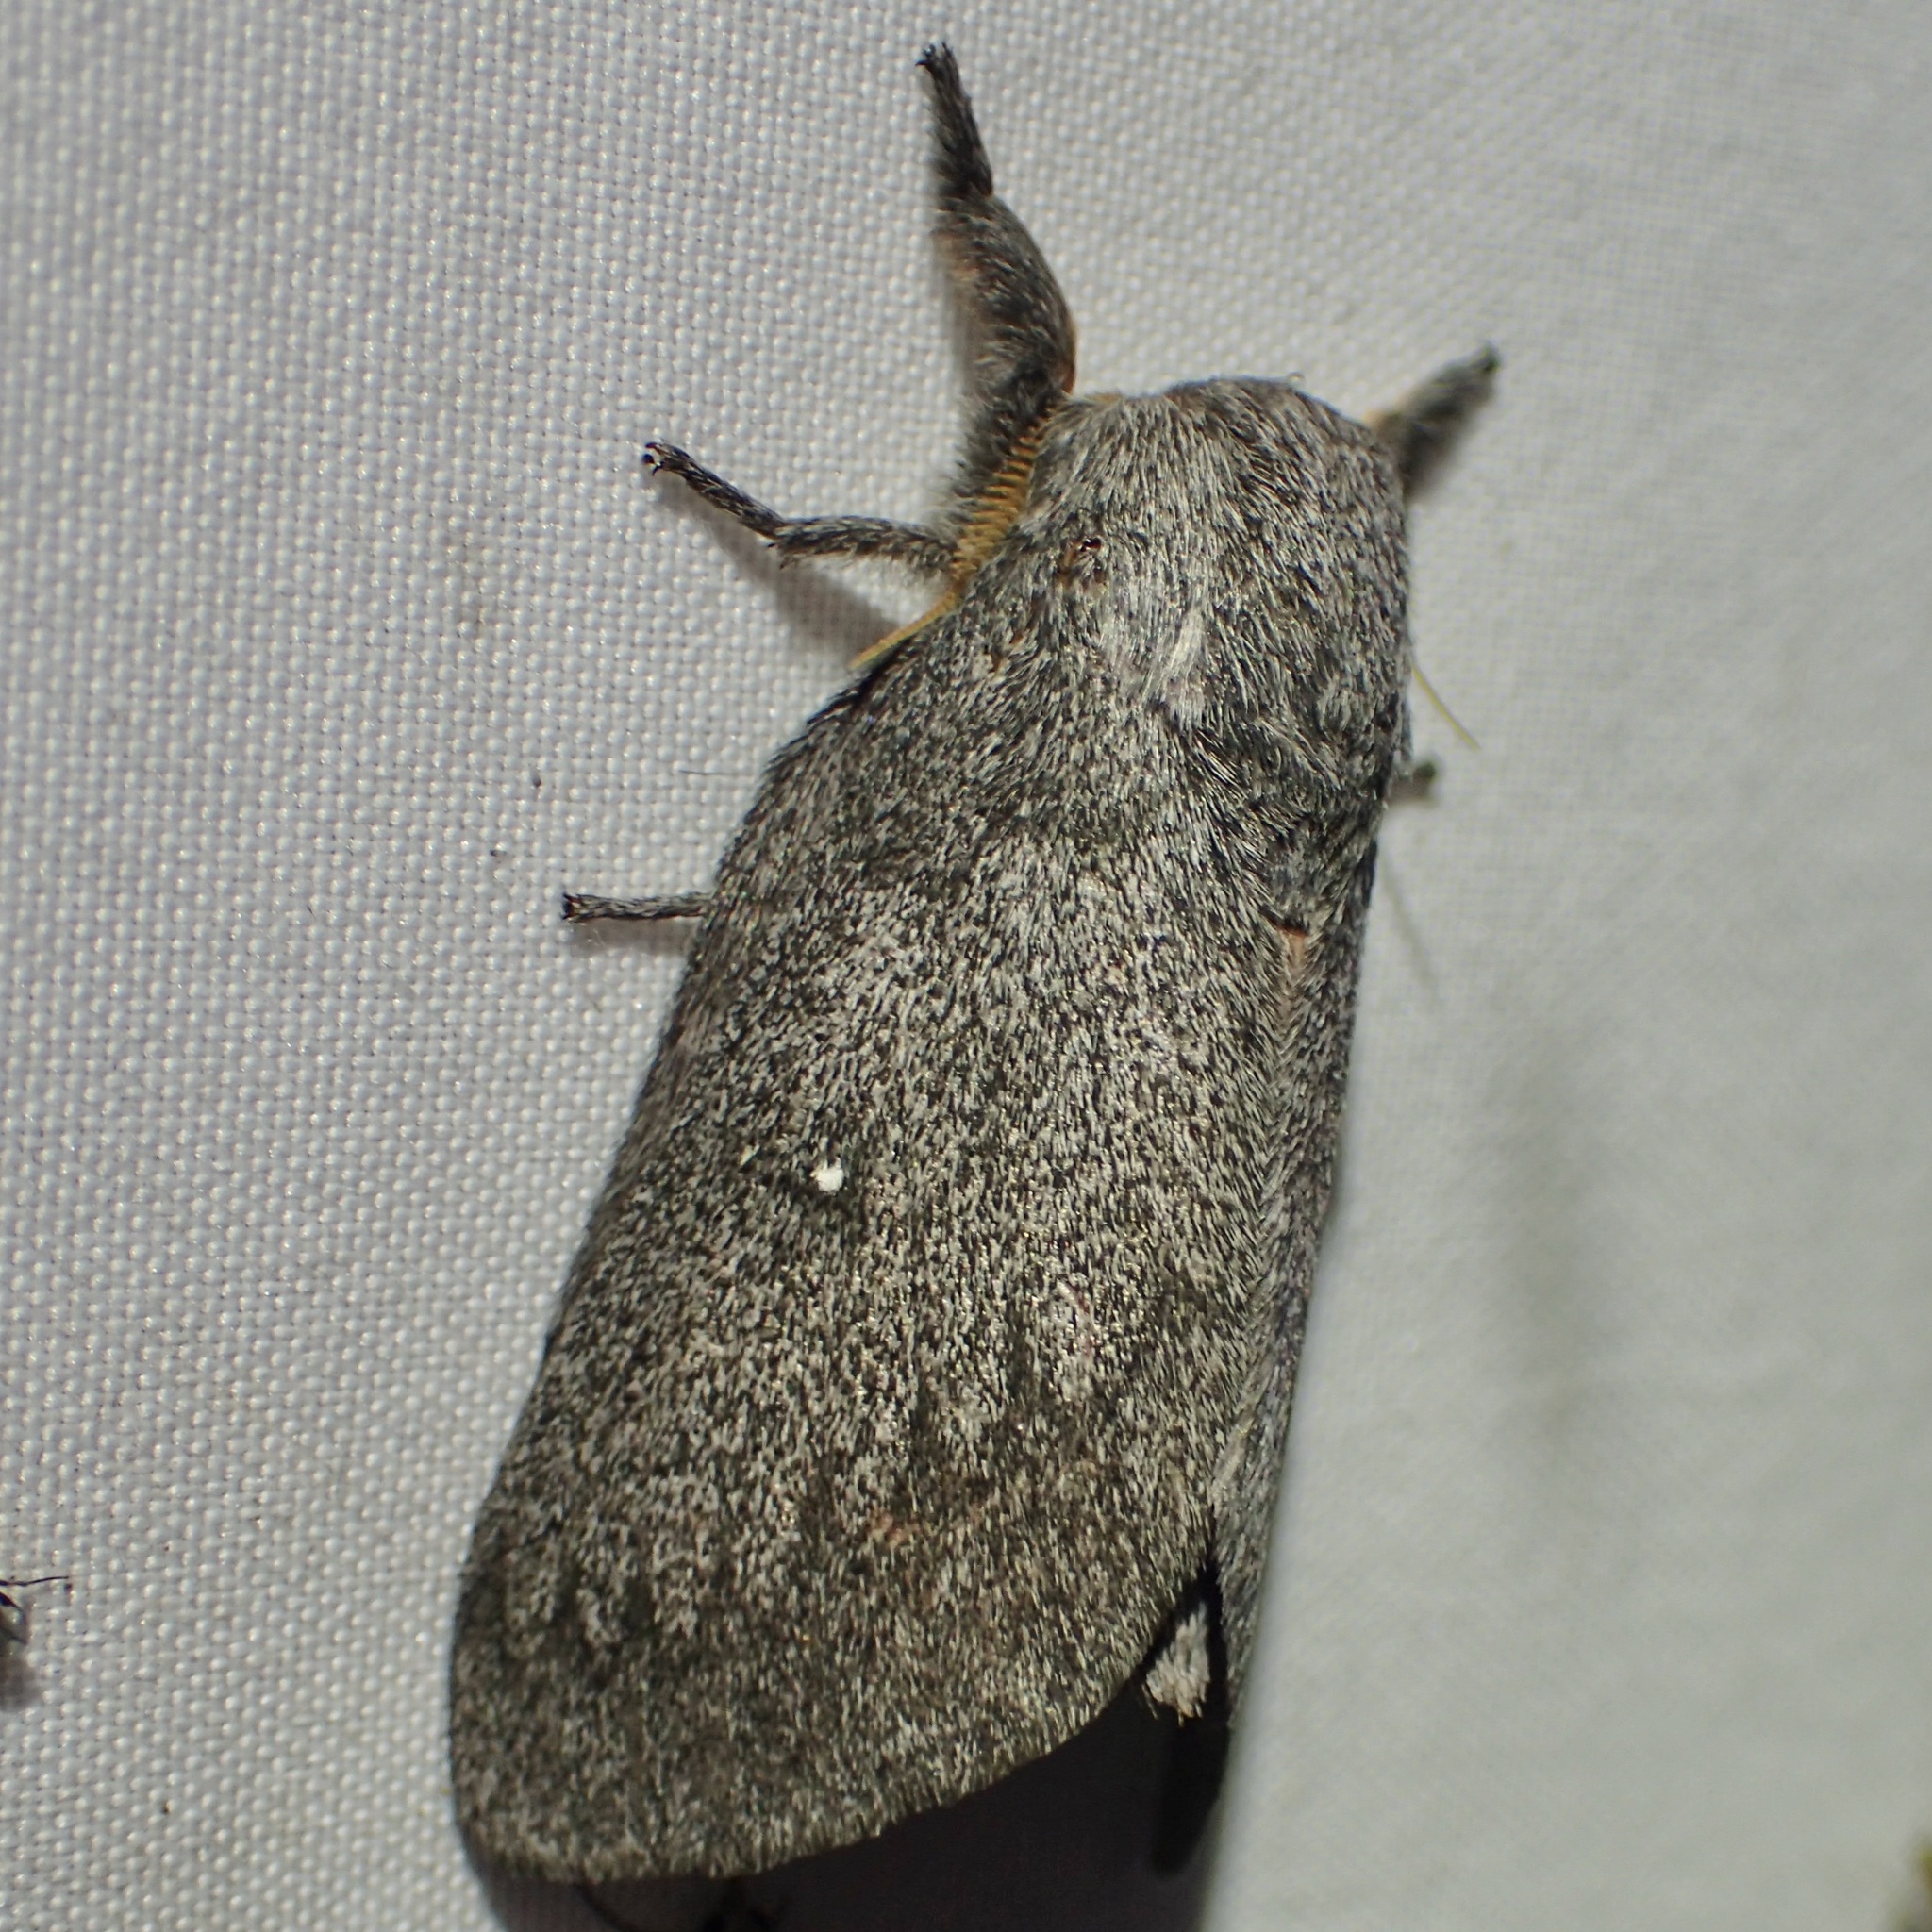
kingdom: Animalia
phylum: Arthropoda
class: Insecta
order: Lepidoptera
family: Saturniidae
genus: Syssphinx
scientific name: Syssphinx hubbardi
